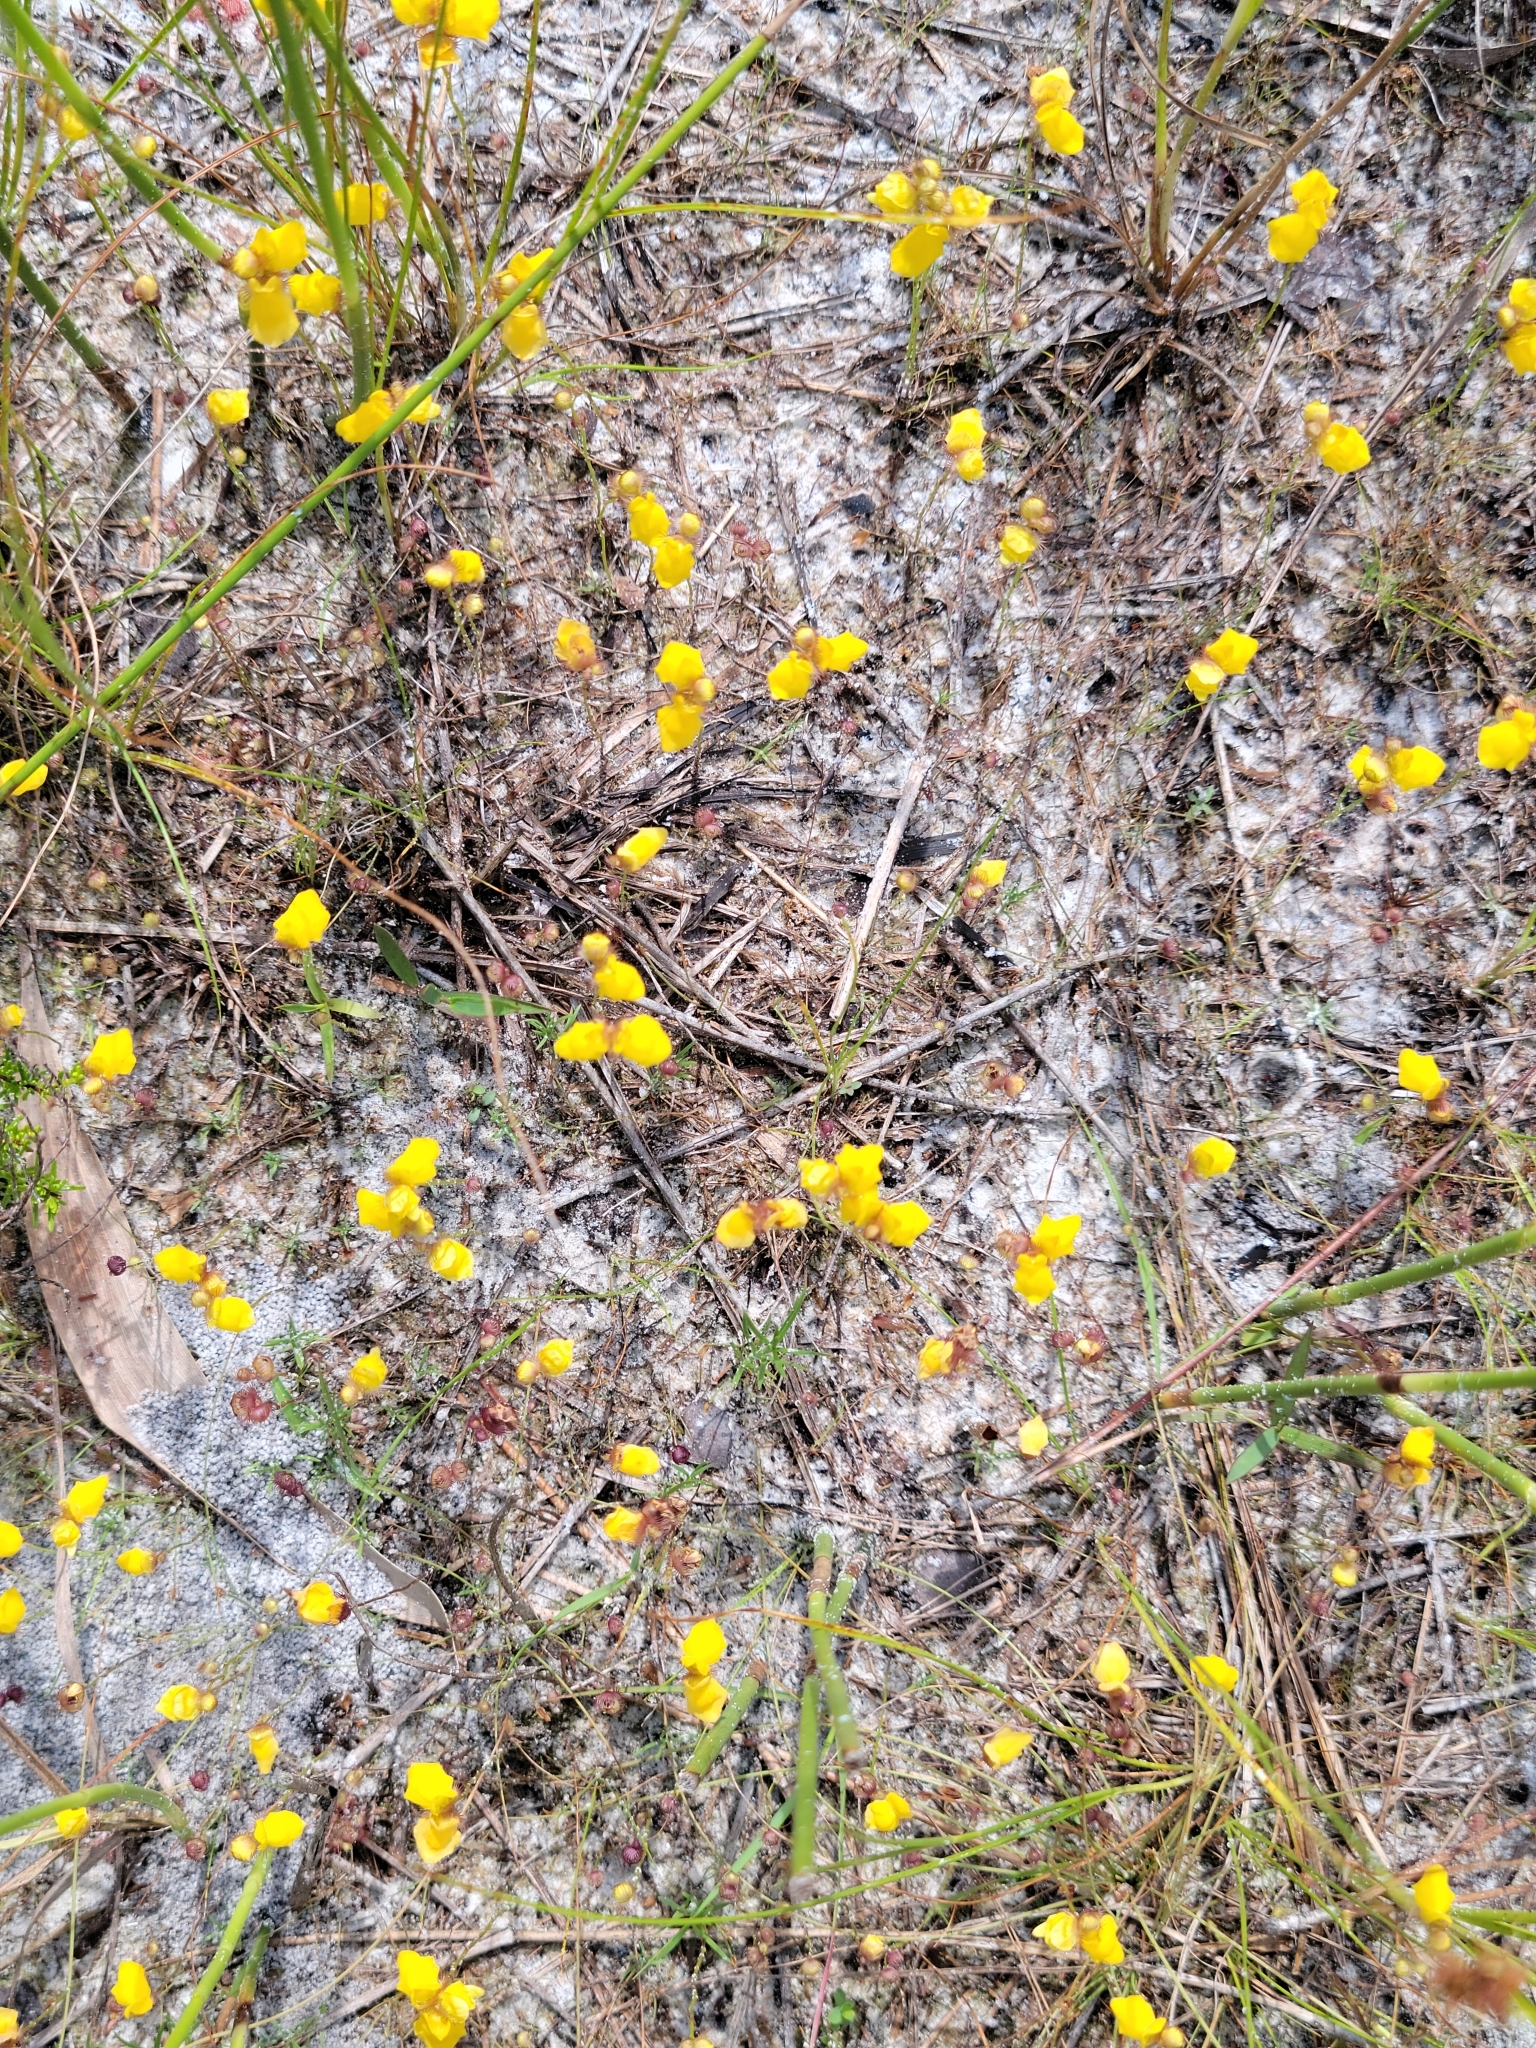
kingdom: Plantae
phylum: Tracheophyta
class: Magnoliopsida
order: Lamiales
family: Lentibulariaceae
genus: Utricularia
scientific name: Utricularia simulans
